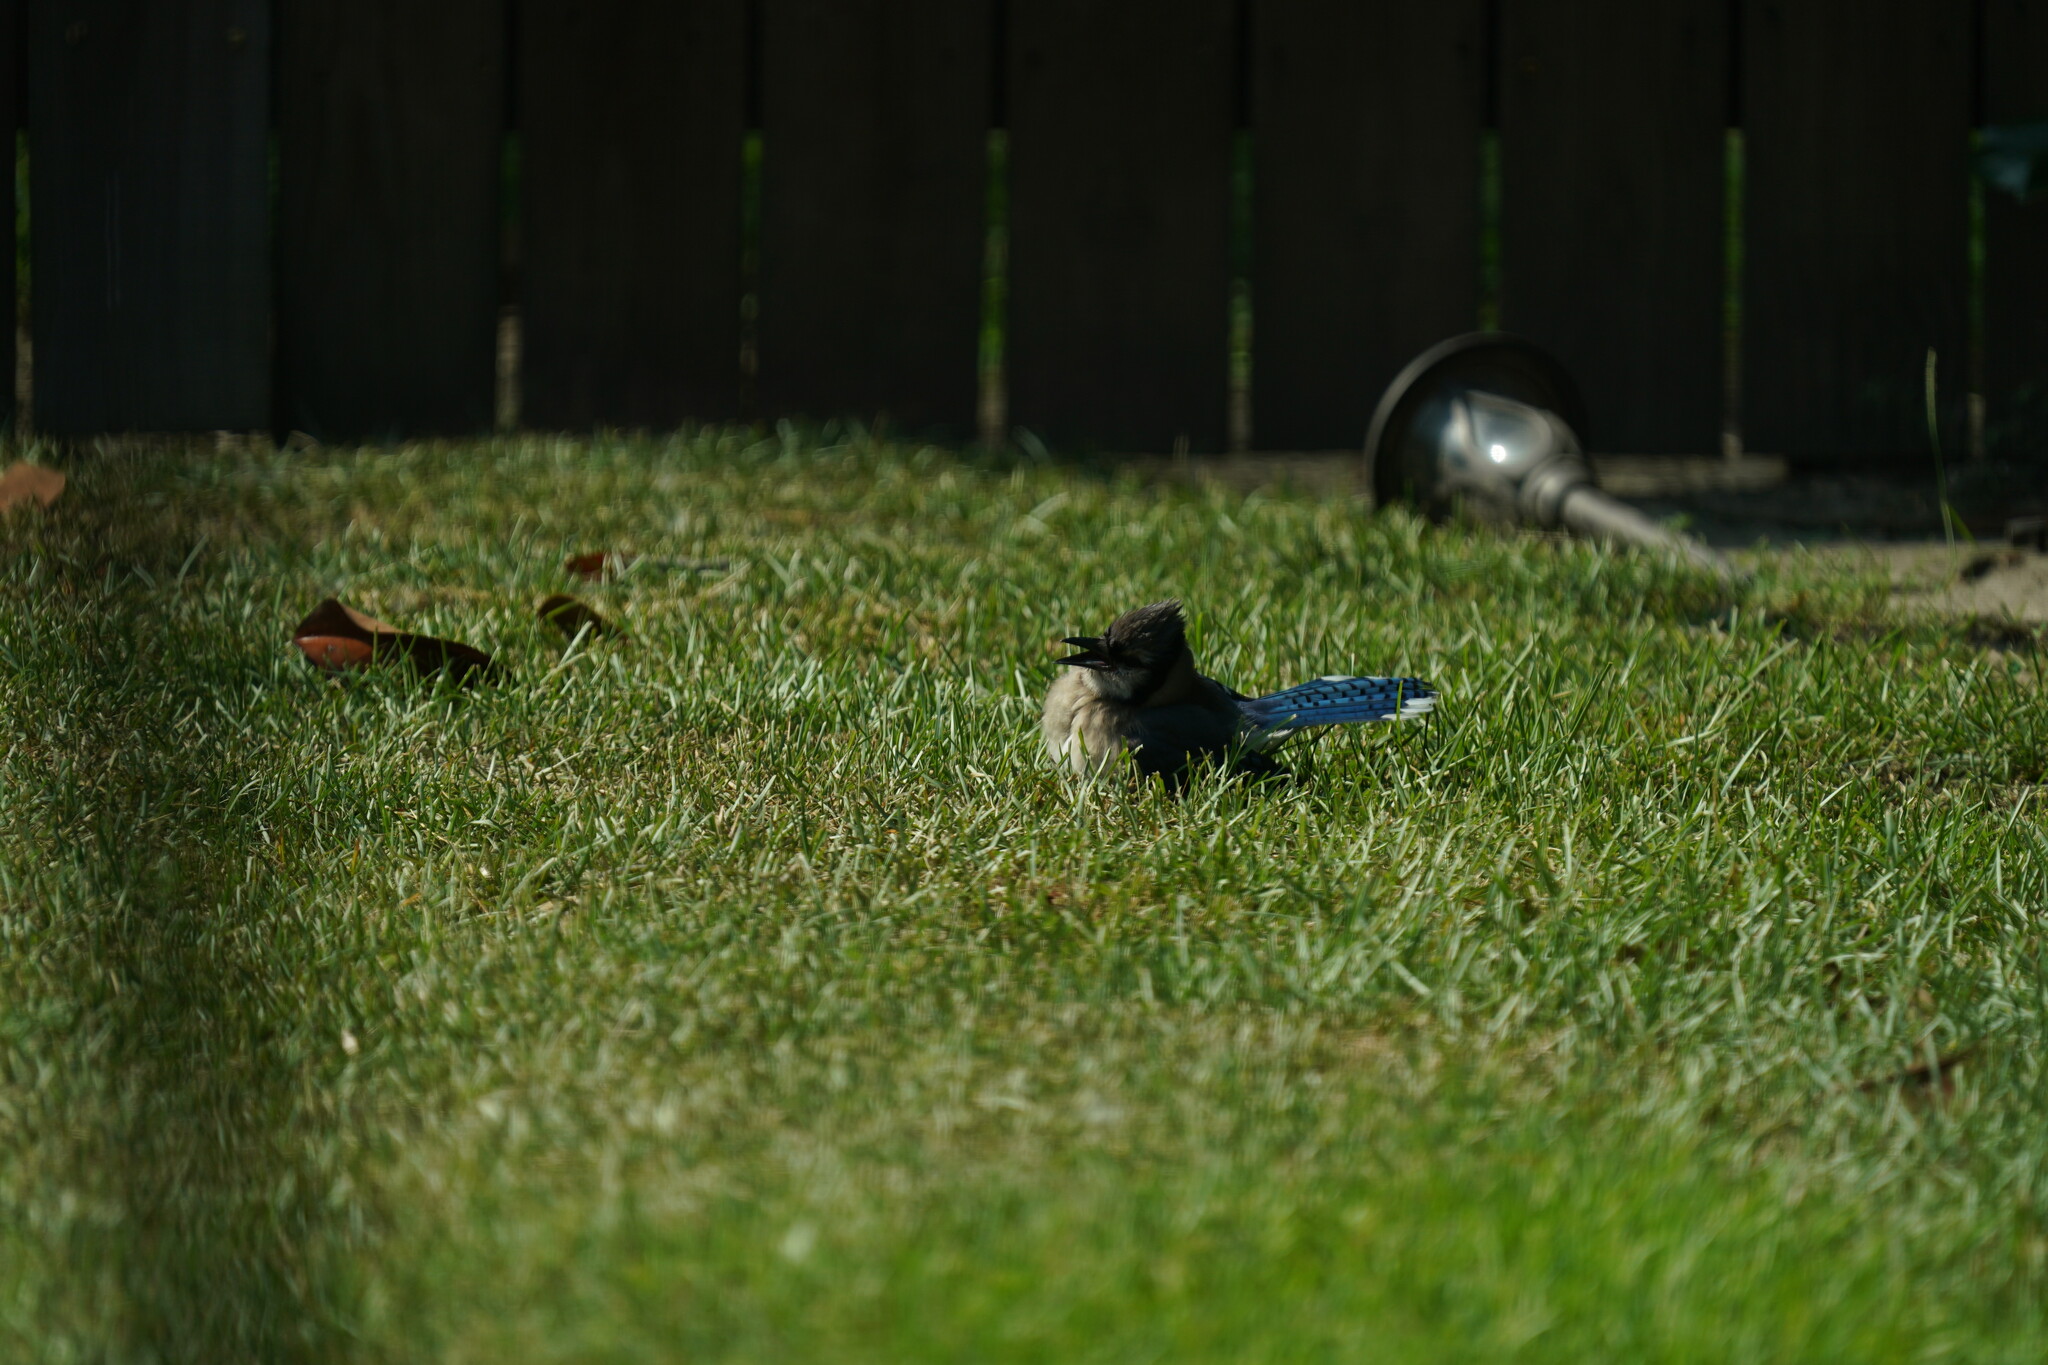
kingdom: Animalia
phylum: Chordata
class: Aves
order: Passeriformes
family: Corvidae
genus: Cyanocitta
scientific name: Cyanocitta cristata
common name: Blue jay
